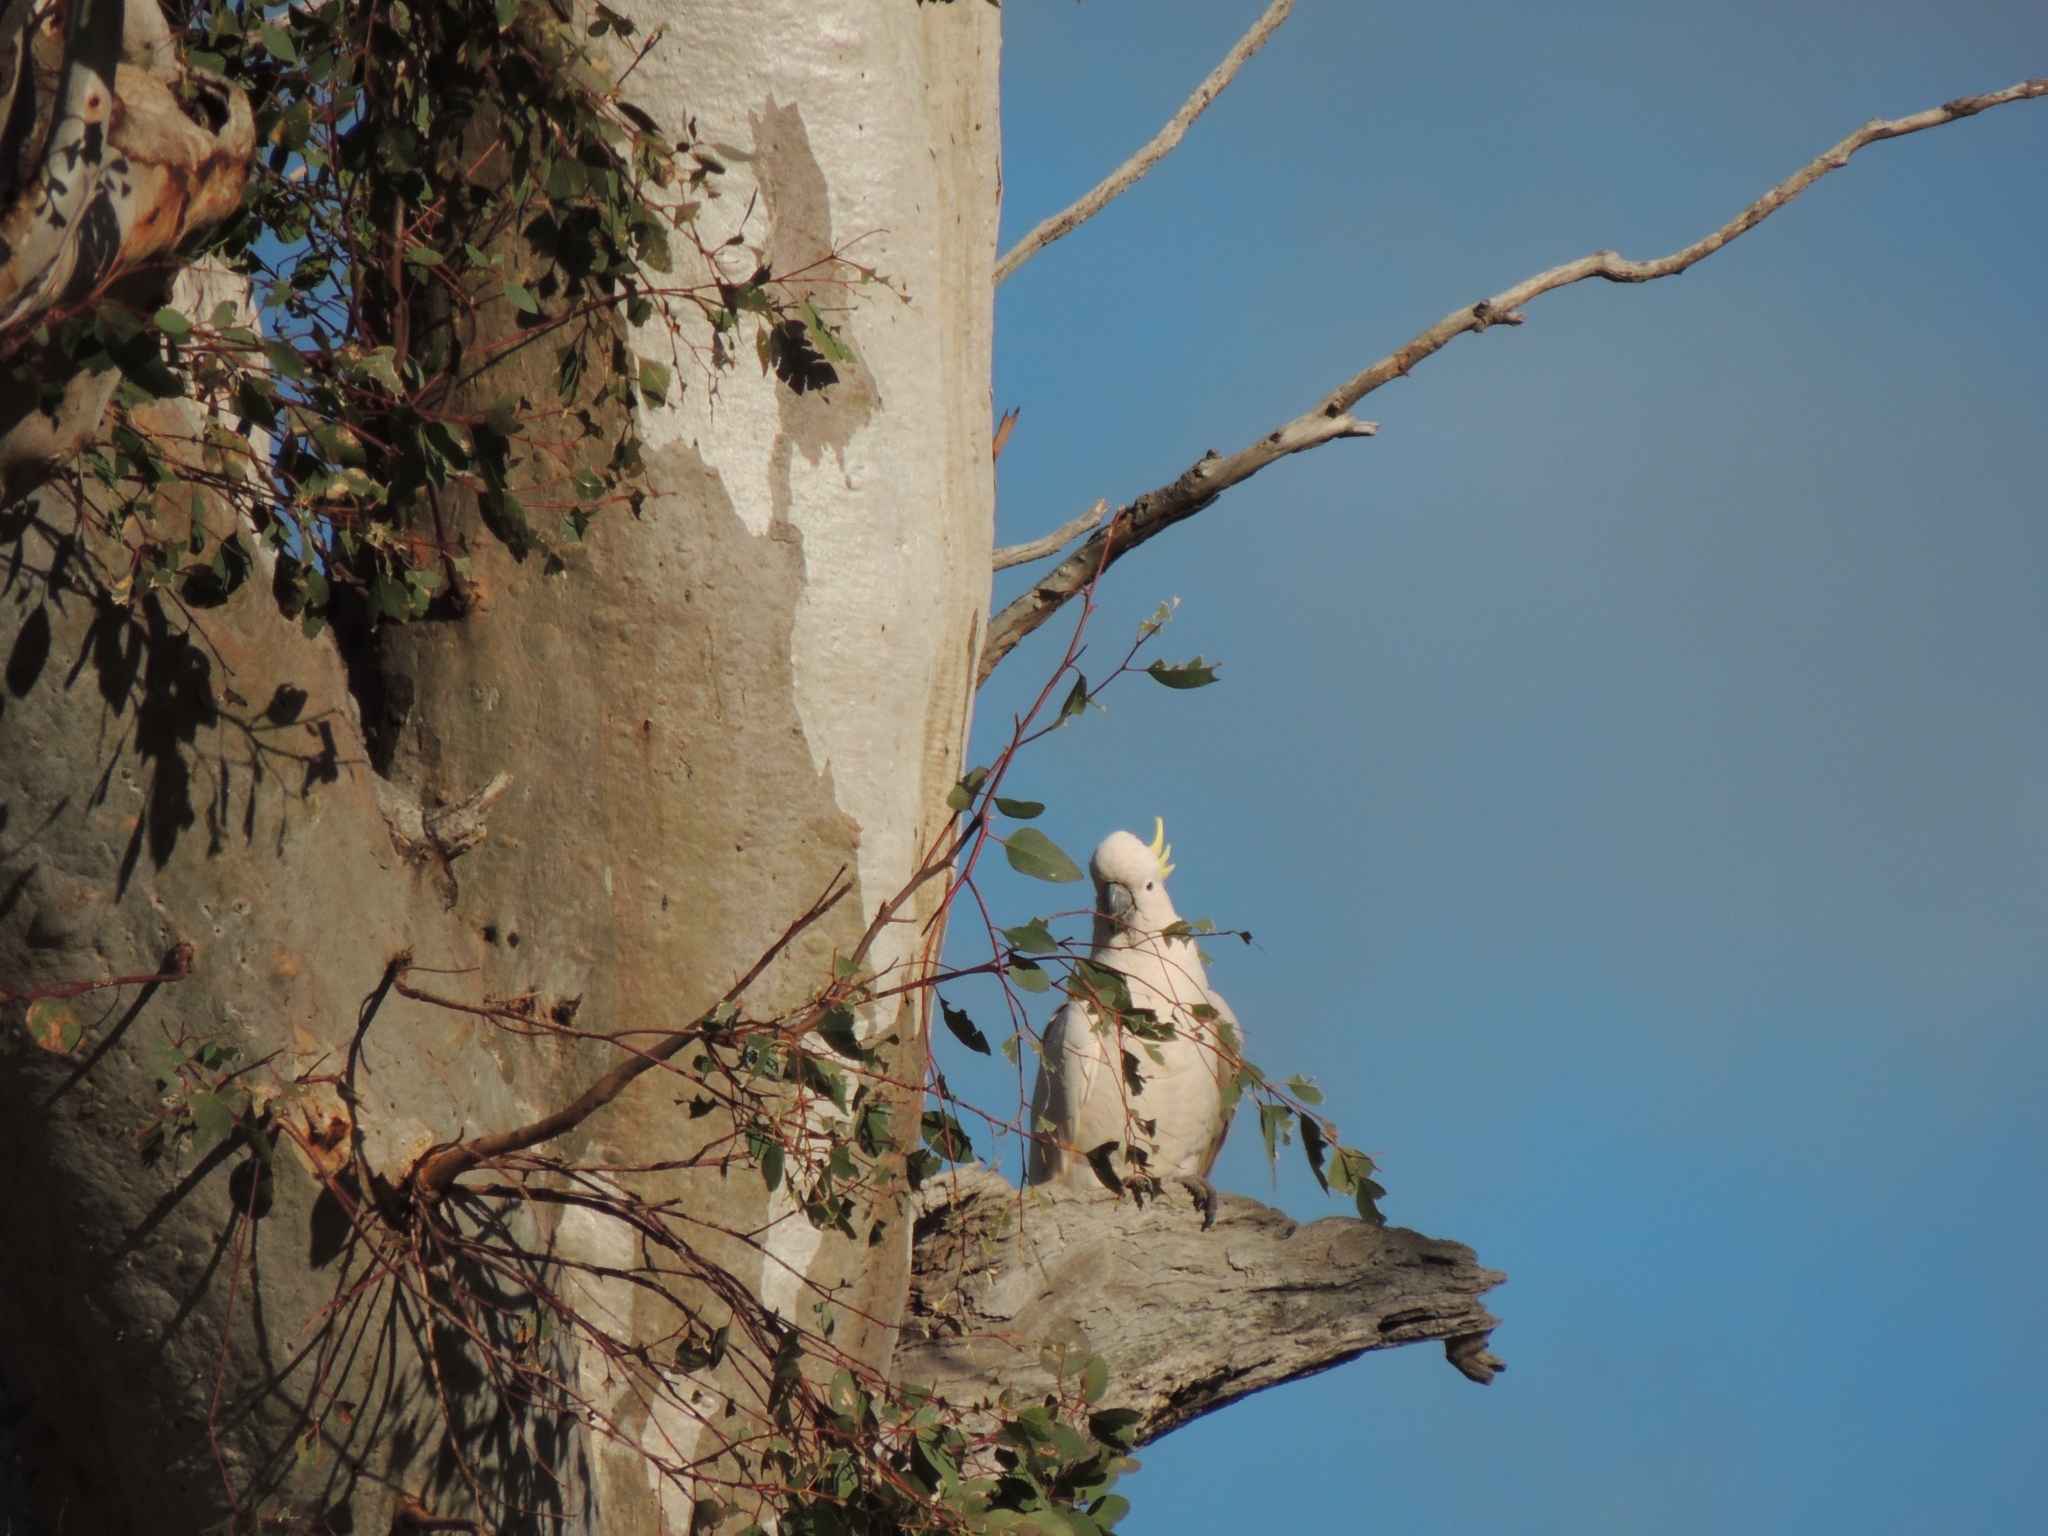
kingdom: Animalia
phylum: Chordata
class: Aves
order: Psittaciformes
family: Psittacidae
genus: Cacatua
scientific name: Cacatua galerita
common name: Sulphur-crested cockatoo
